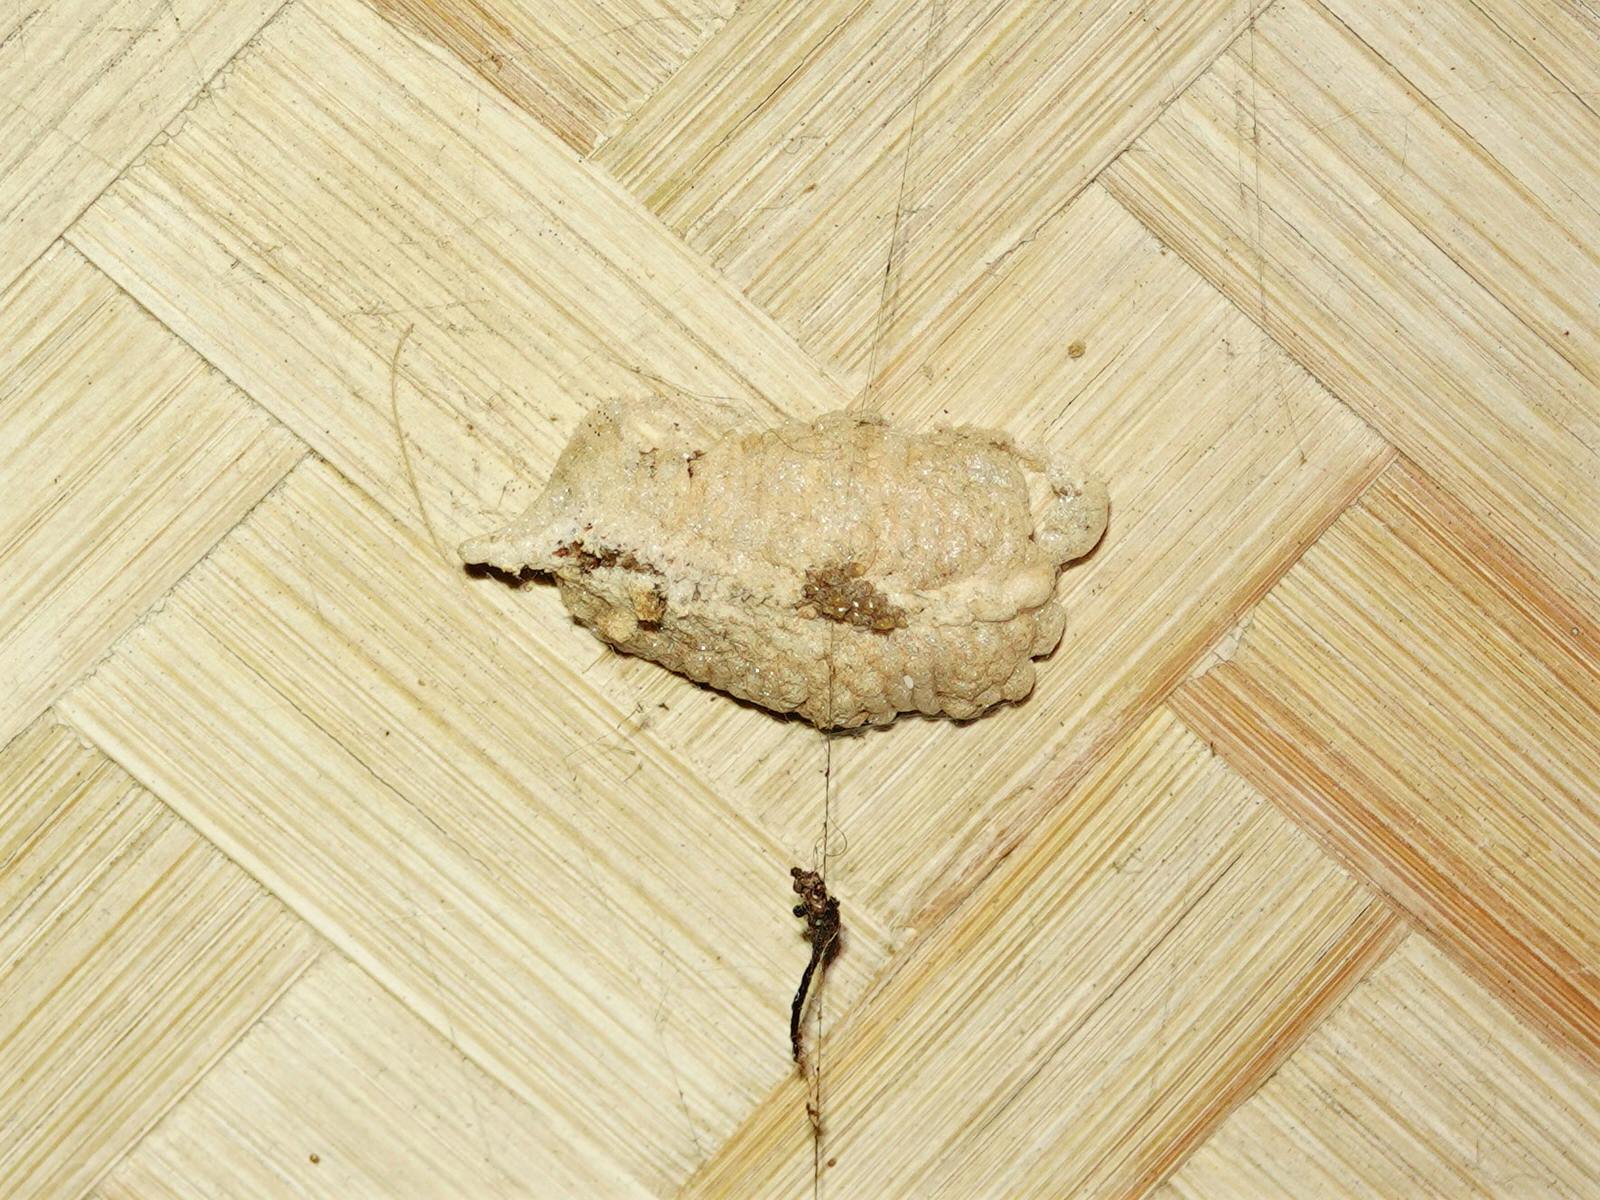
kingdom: Animalia
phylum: Arthropoda
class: Insecta
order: Mantodea
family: Miomantidae
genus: Miomantis
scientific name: Miomantis caffra
